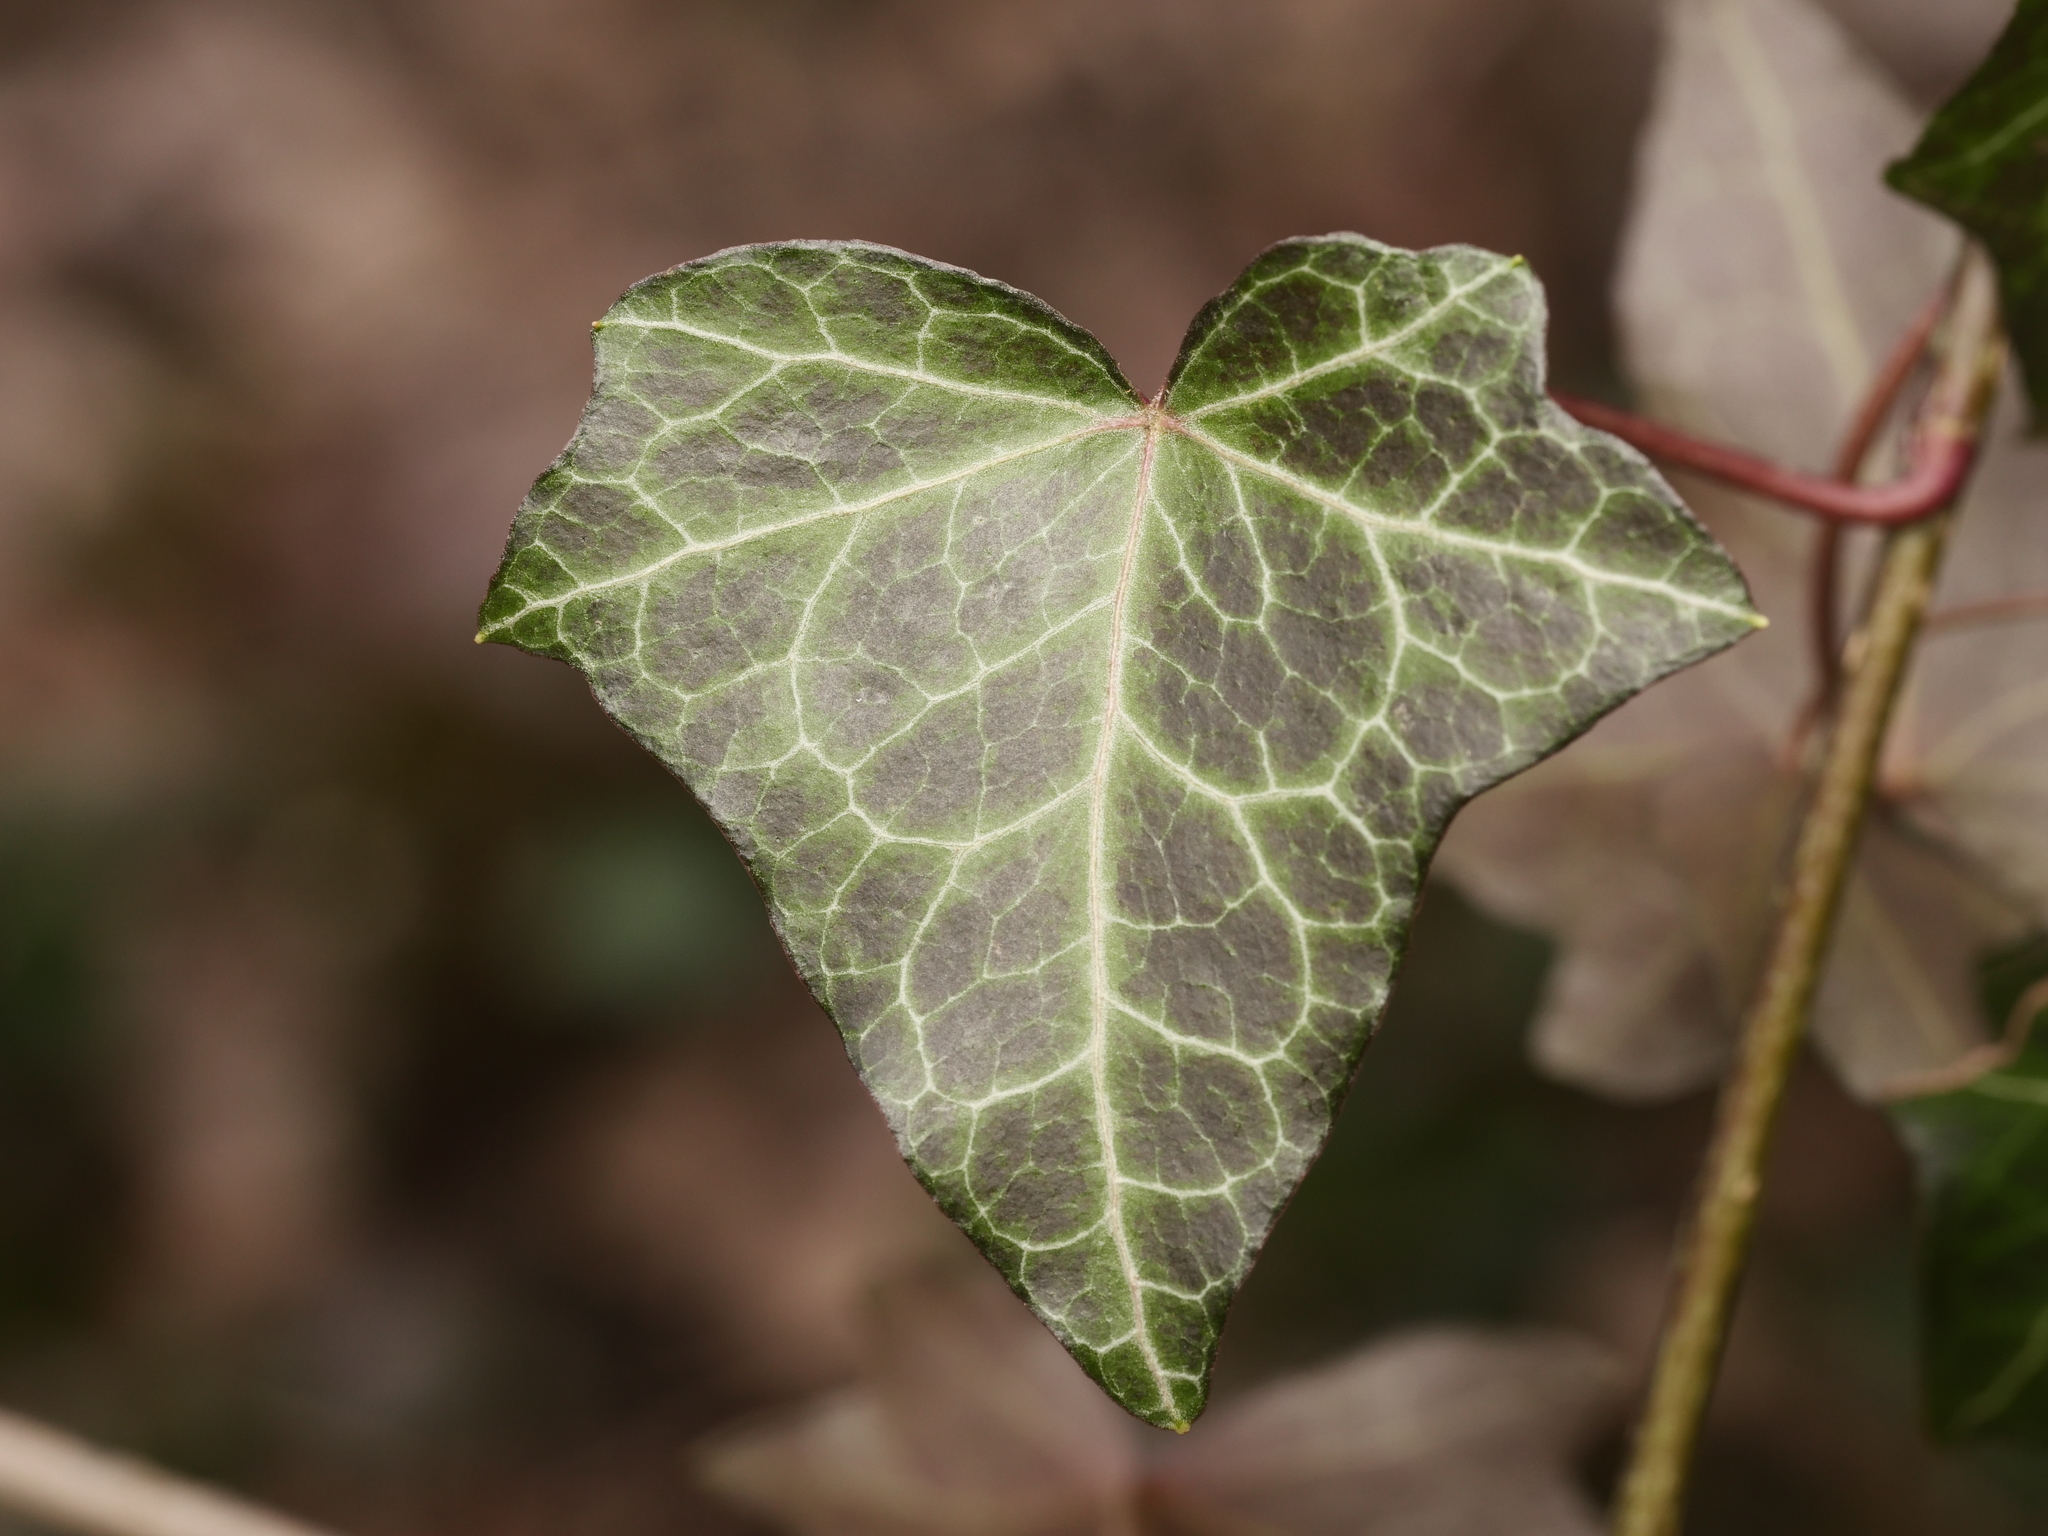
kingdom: Plantae
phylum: Tracheophyta
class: Magnoliopsida
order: Apiales
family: Araliaceae
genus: Hedera
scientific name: Hedera helix
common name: Ivy
